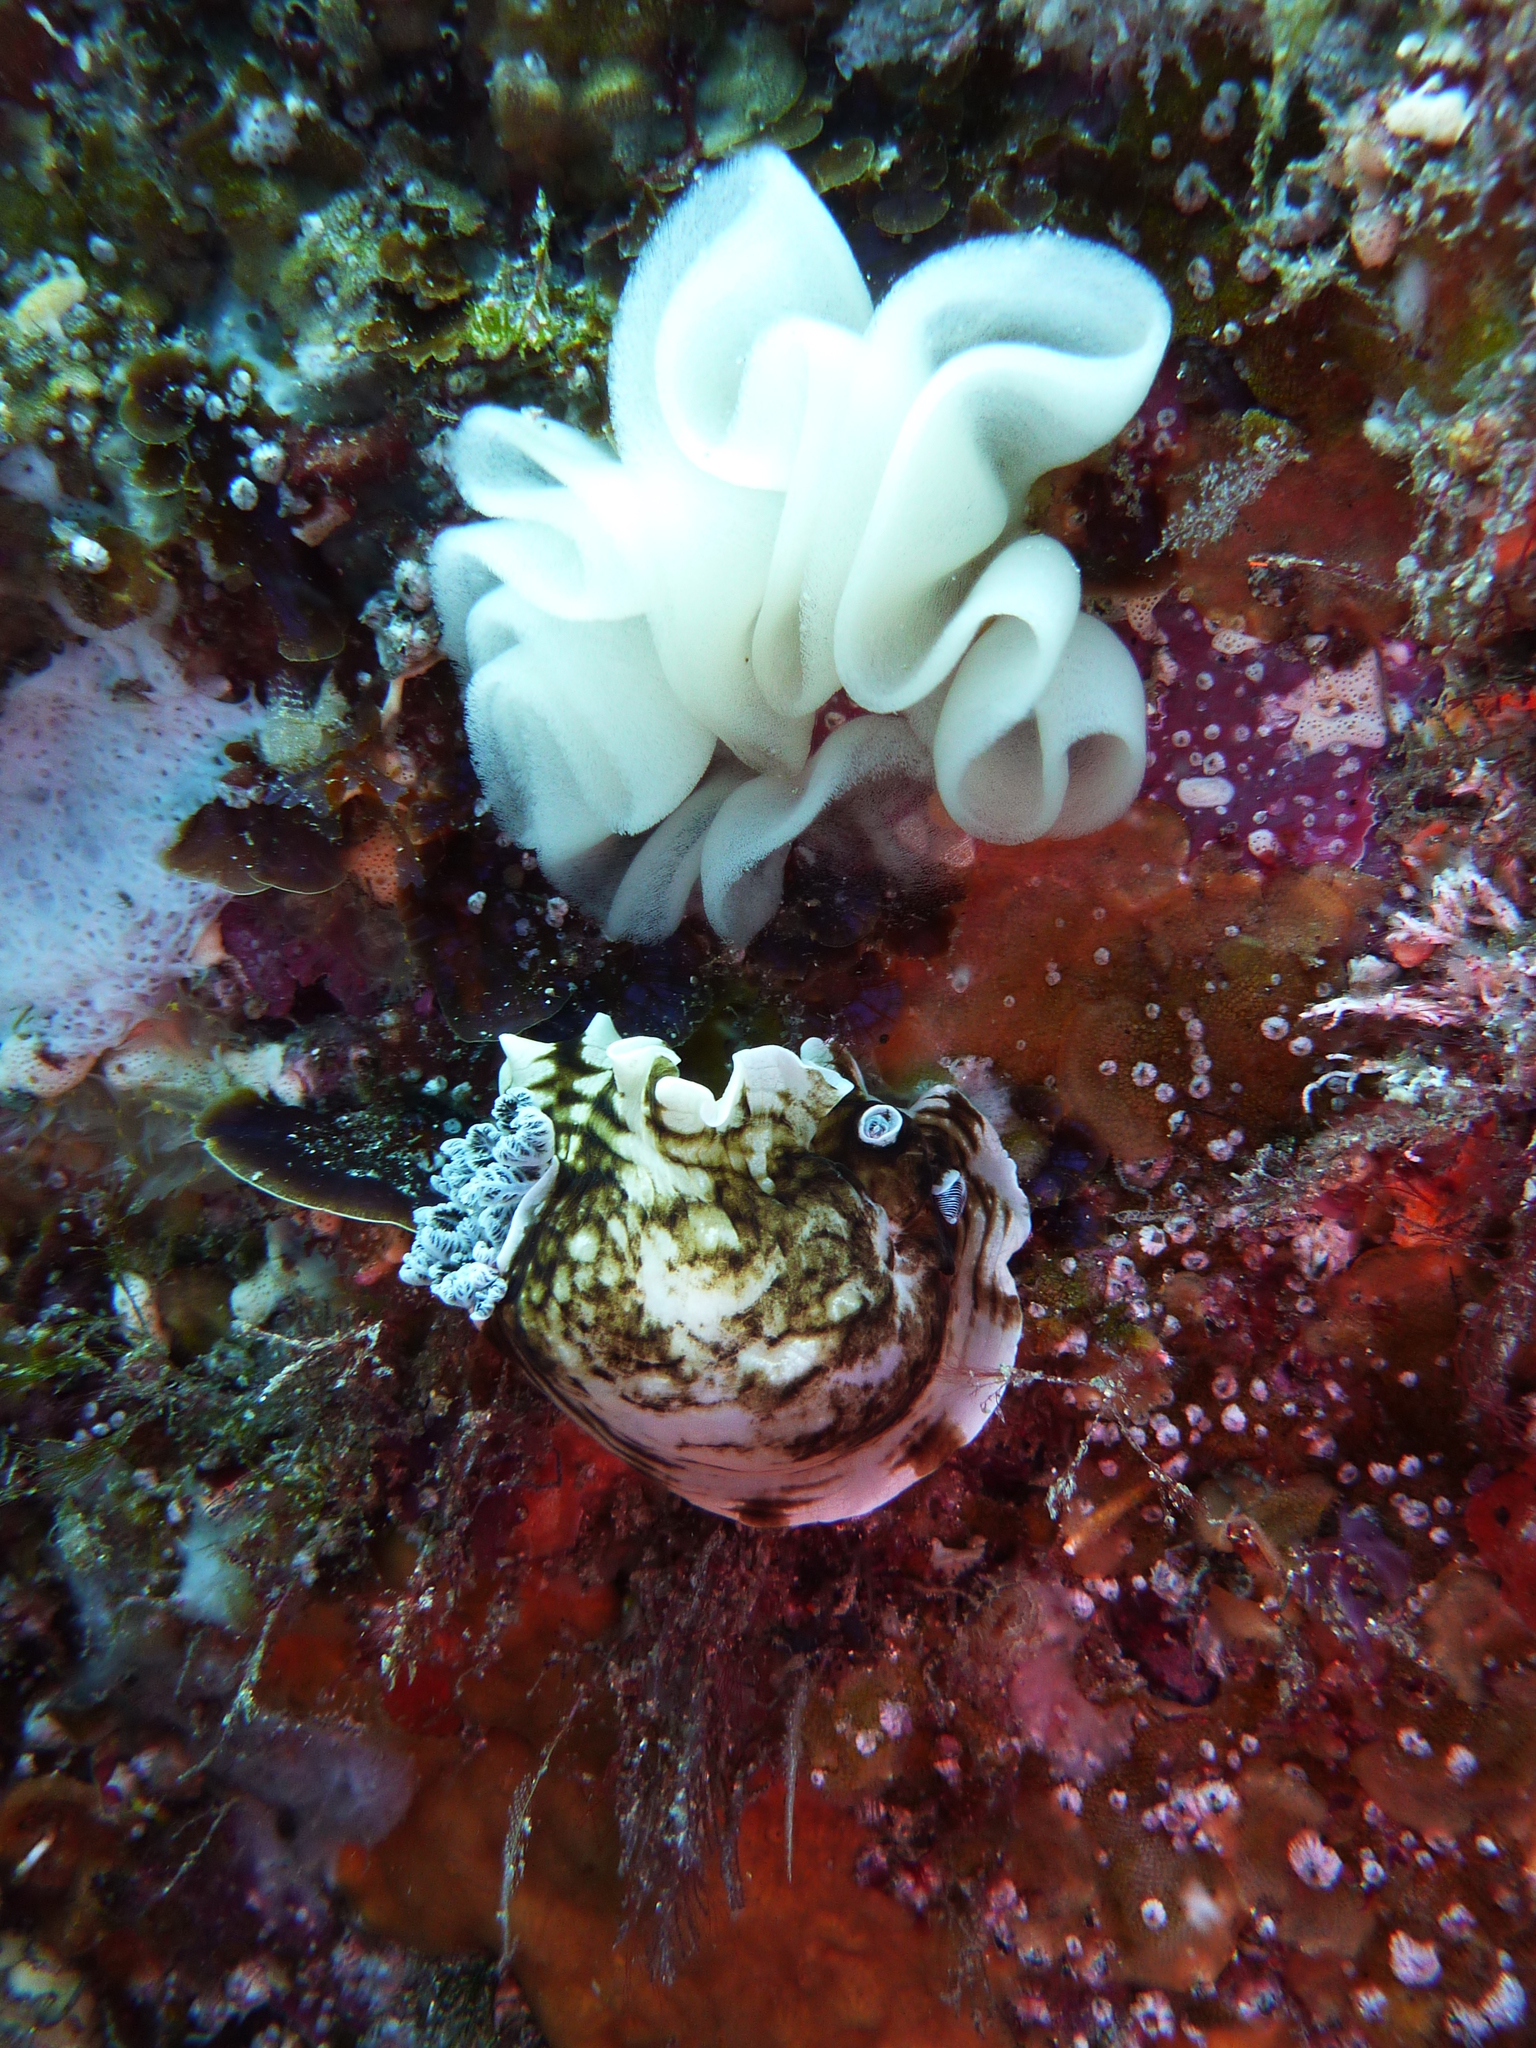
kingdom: Animalia
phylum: Mollusca
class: Gastropoda
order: Nudibranchia
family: Dorididae
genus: Aphelodoris
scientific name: Aphelodoris varia
